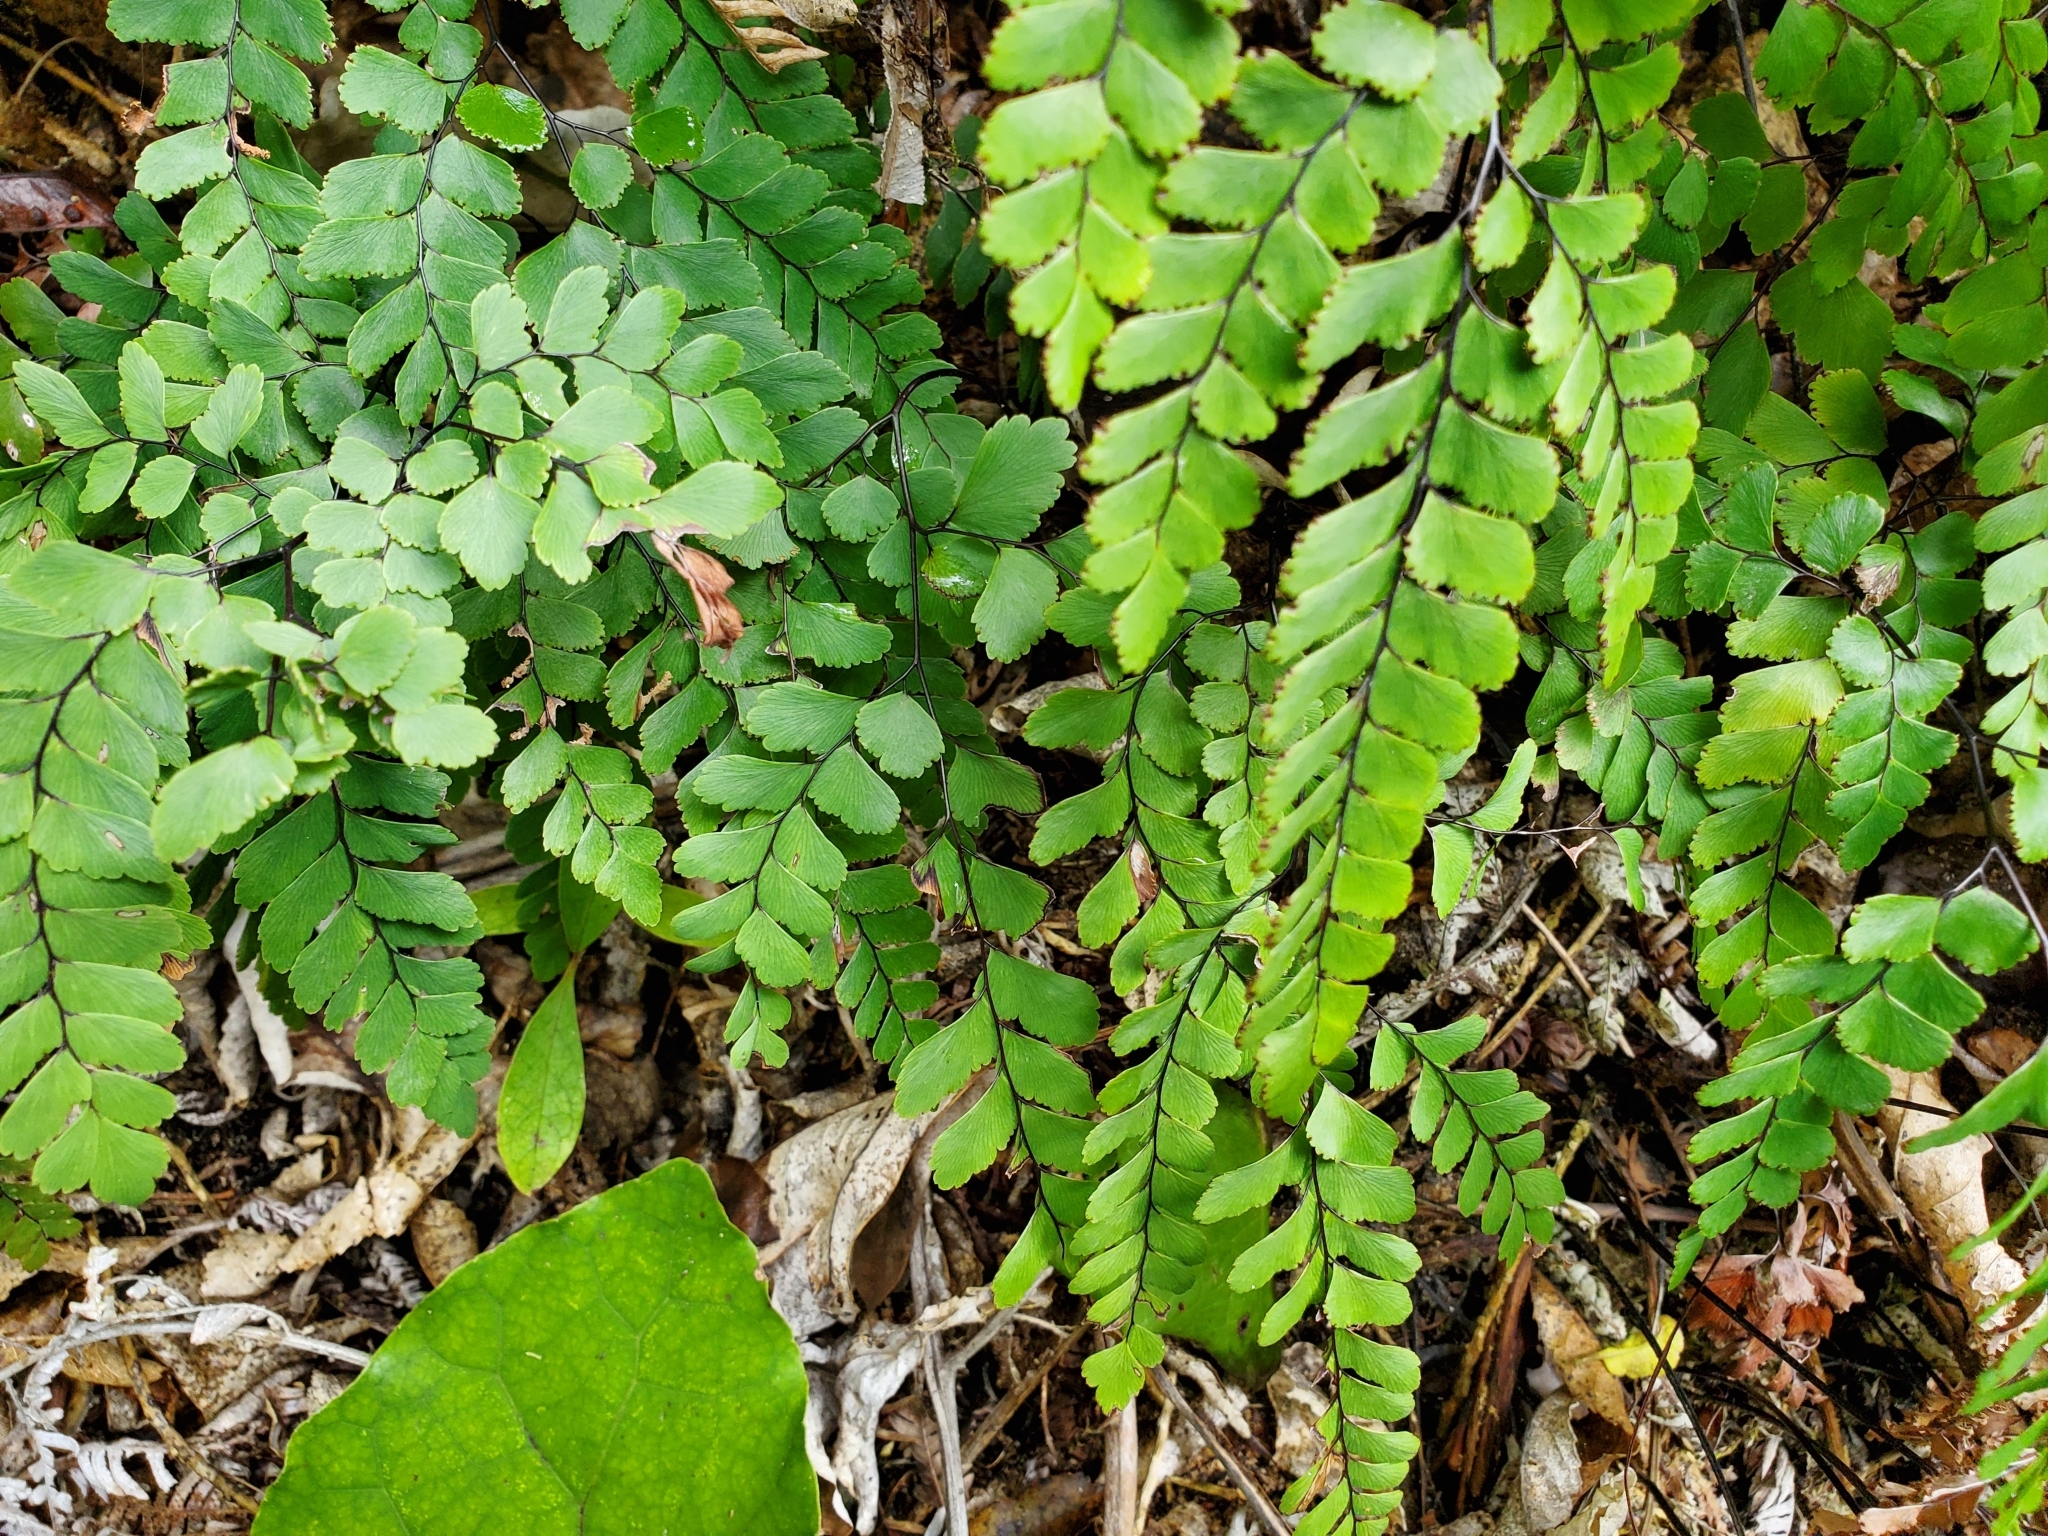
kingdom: Plantae
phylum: Tracheophyta
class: Polypodiopsida
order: Polypodiales
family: Pteridaceae
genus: Adiantum
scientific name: Adiantum cunninghamii
